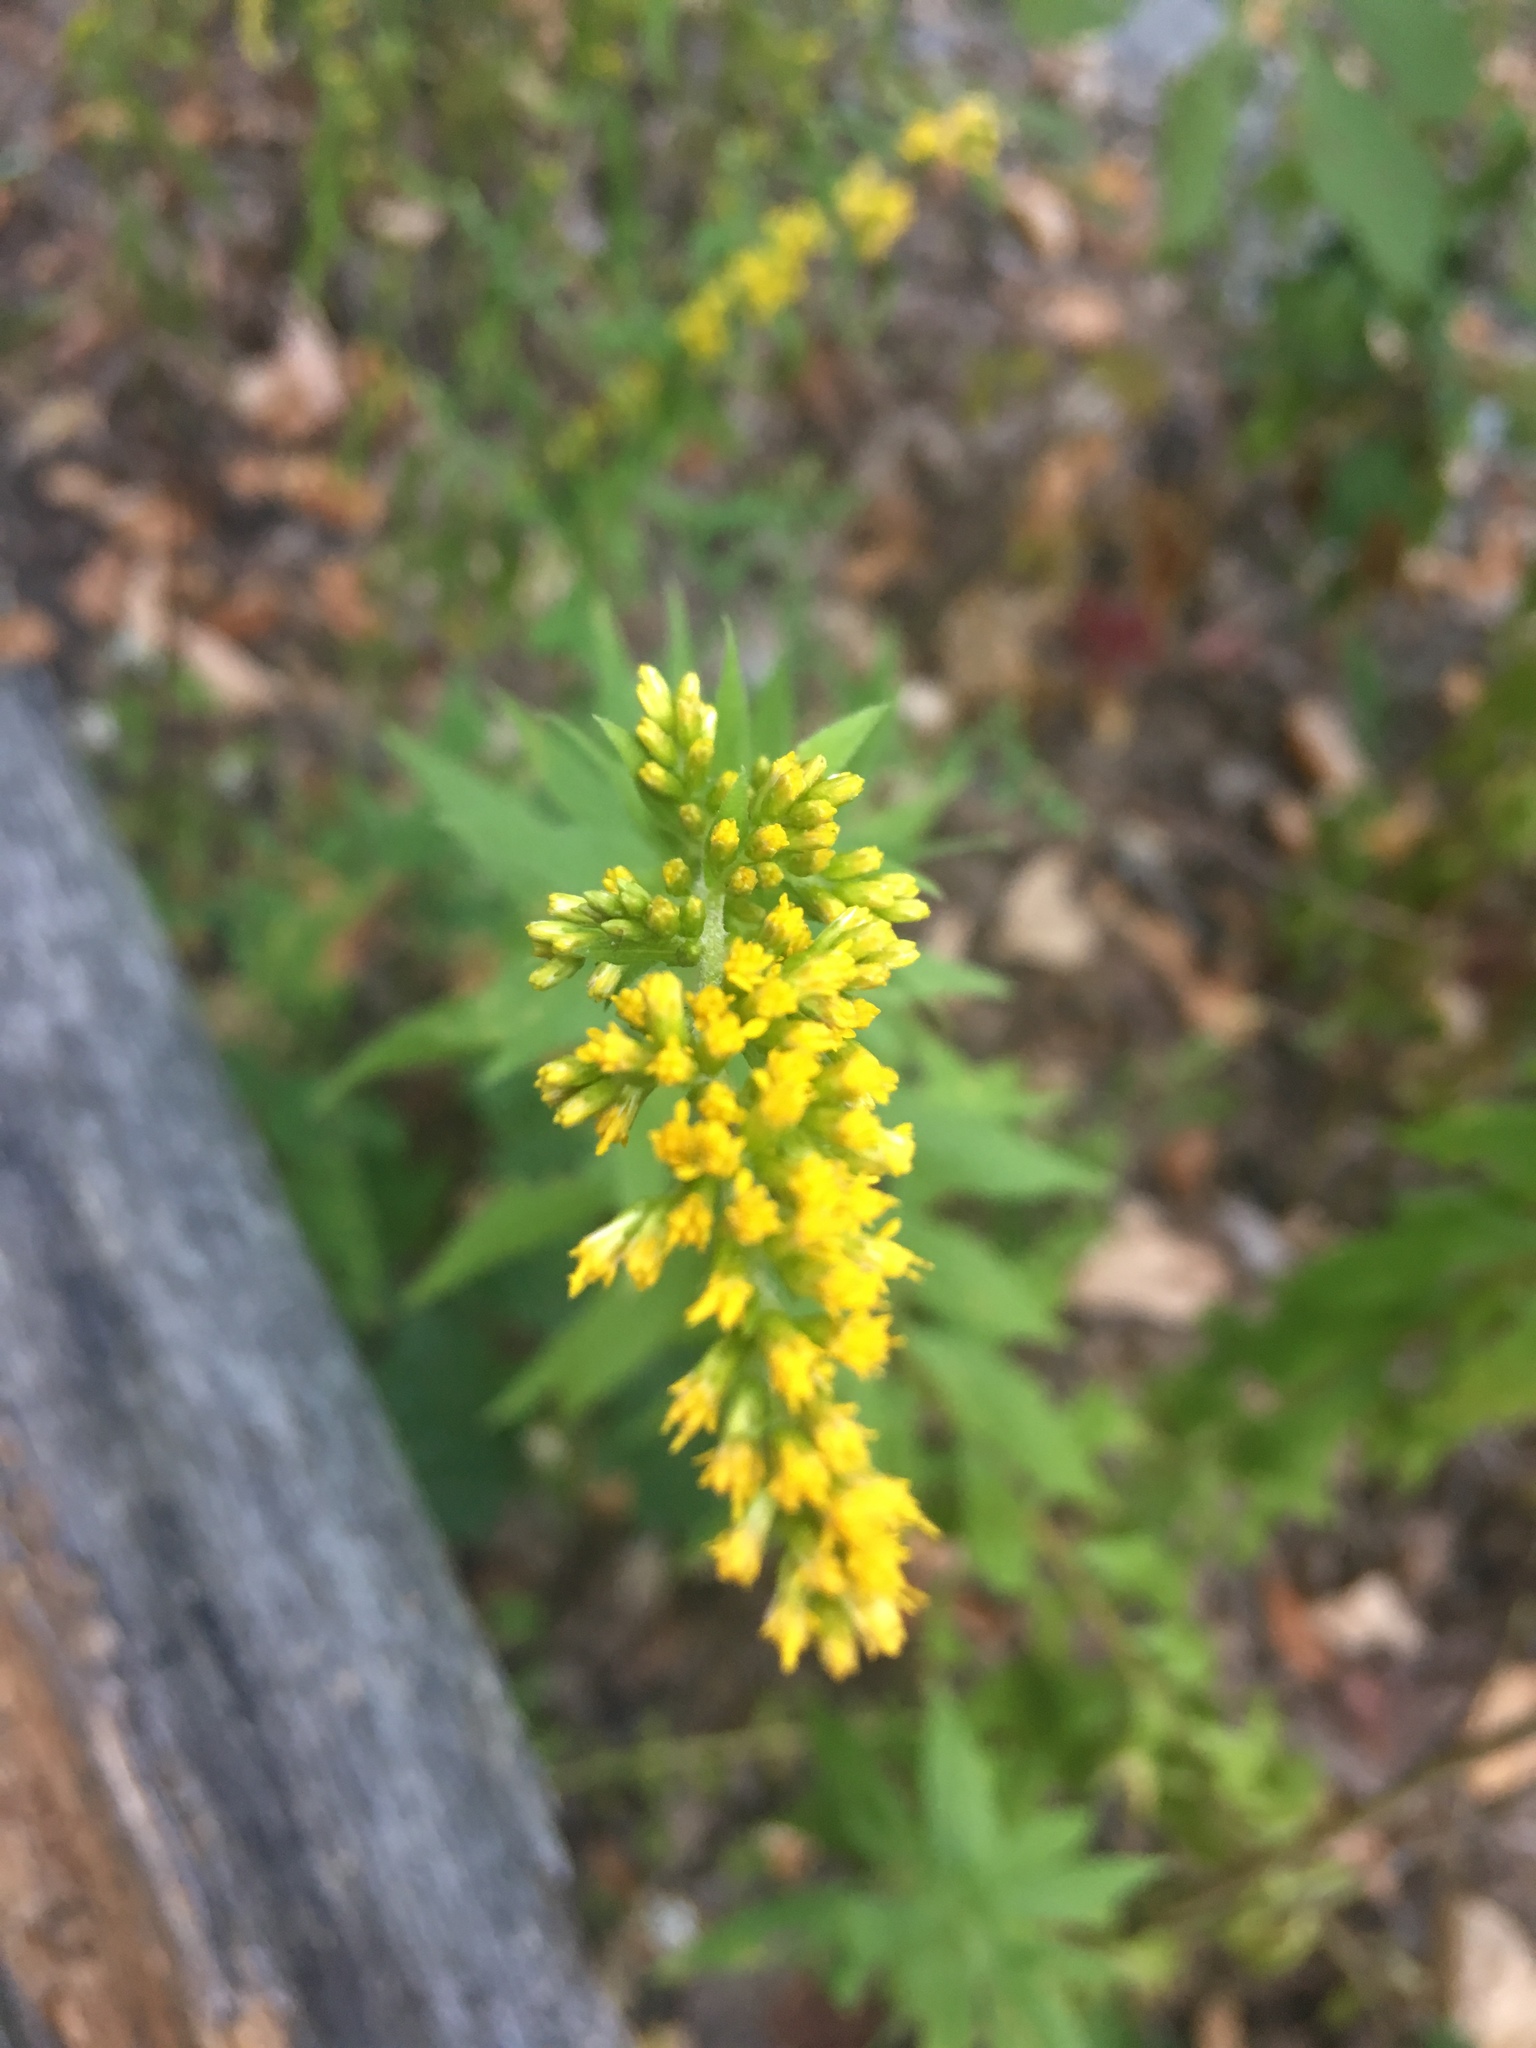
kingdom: Plantae
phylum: Tracheophyta
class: Magnoliopsida
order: Asterales
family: Asteraceae
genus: Solidago
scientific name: Solidago rugosa
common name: Rough-stemmed goldenrod
